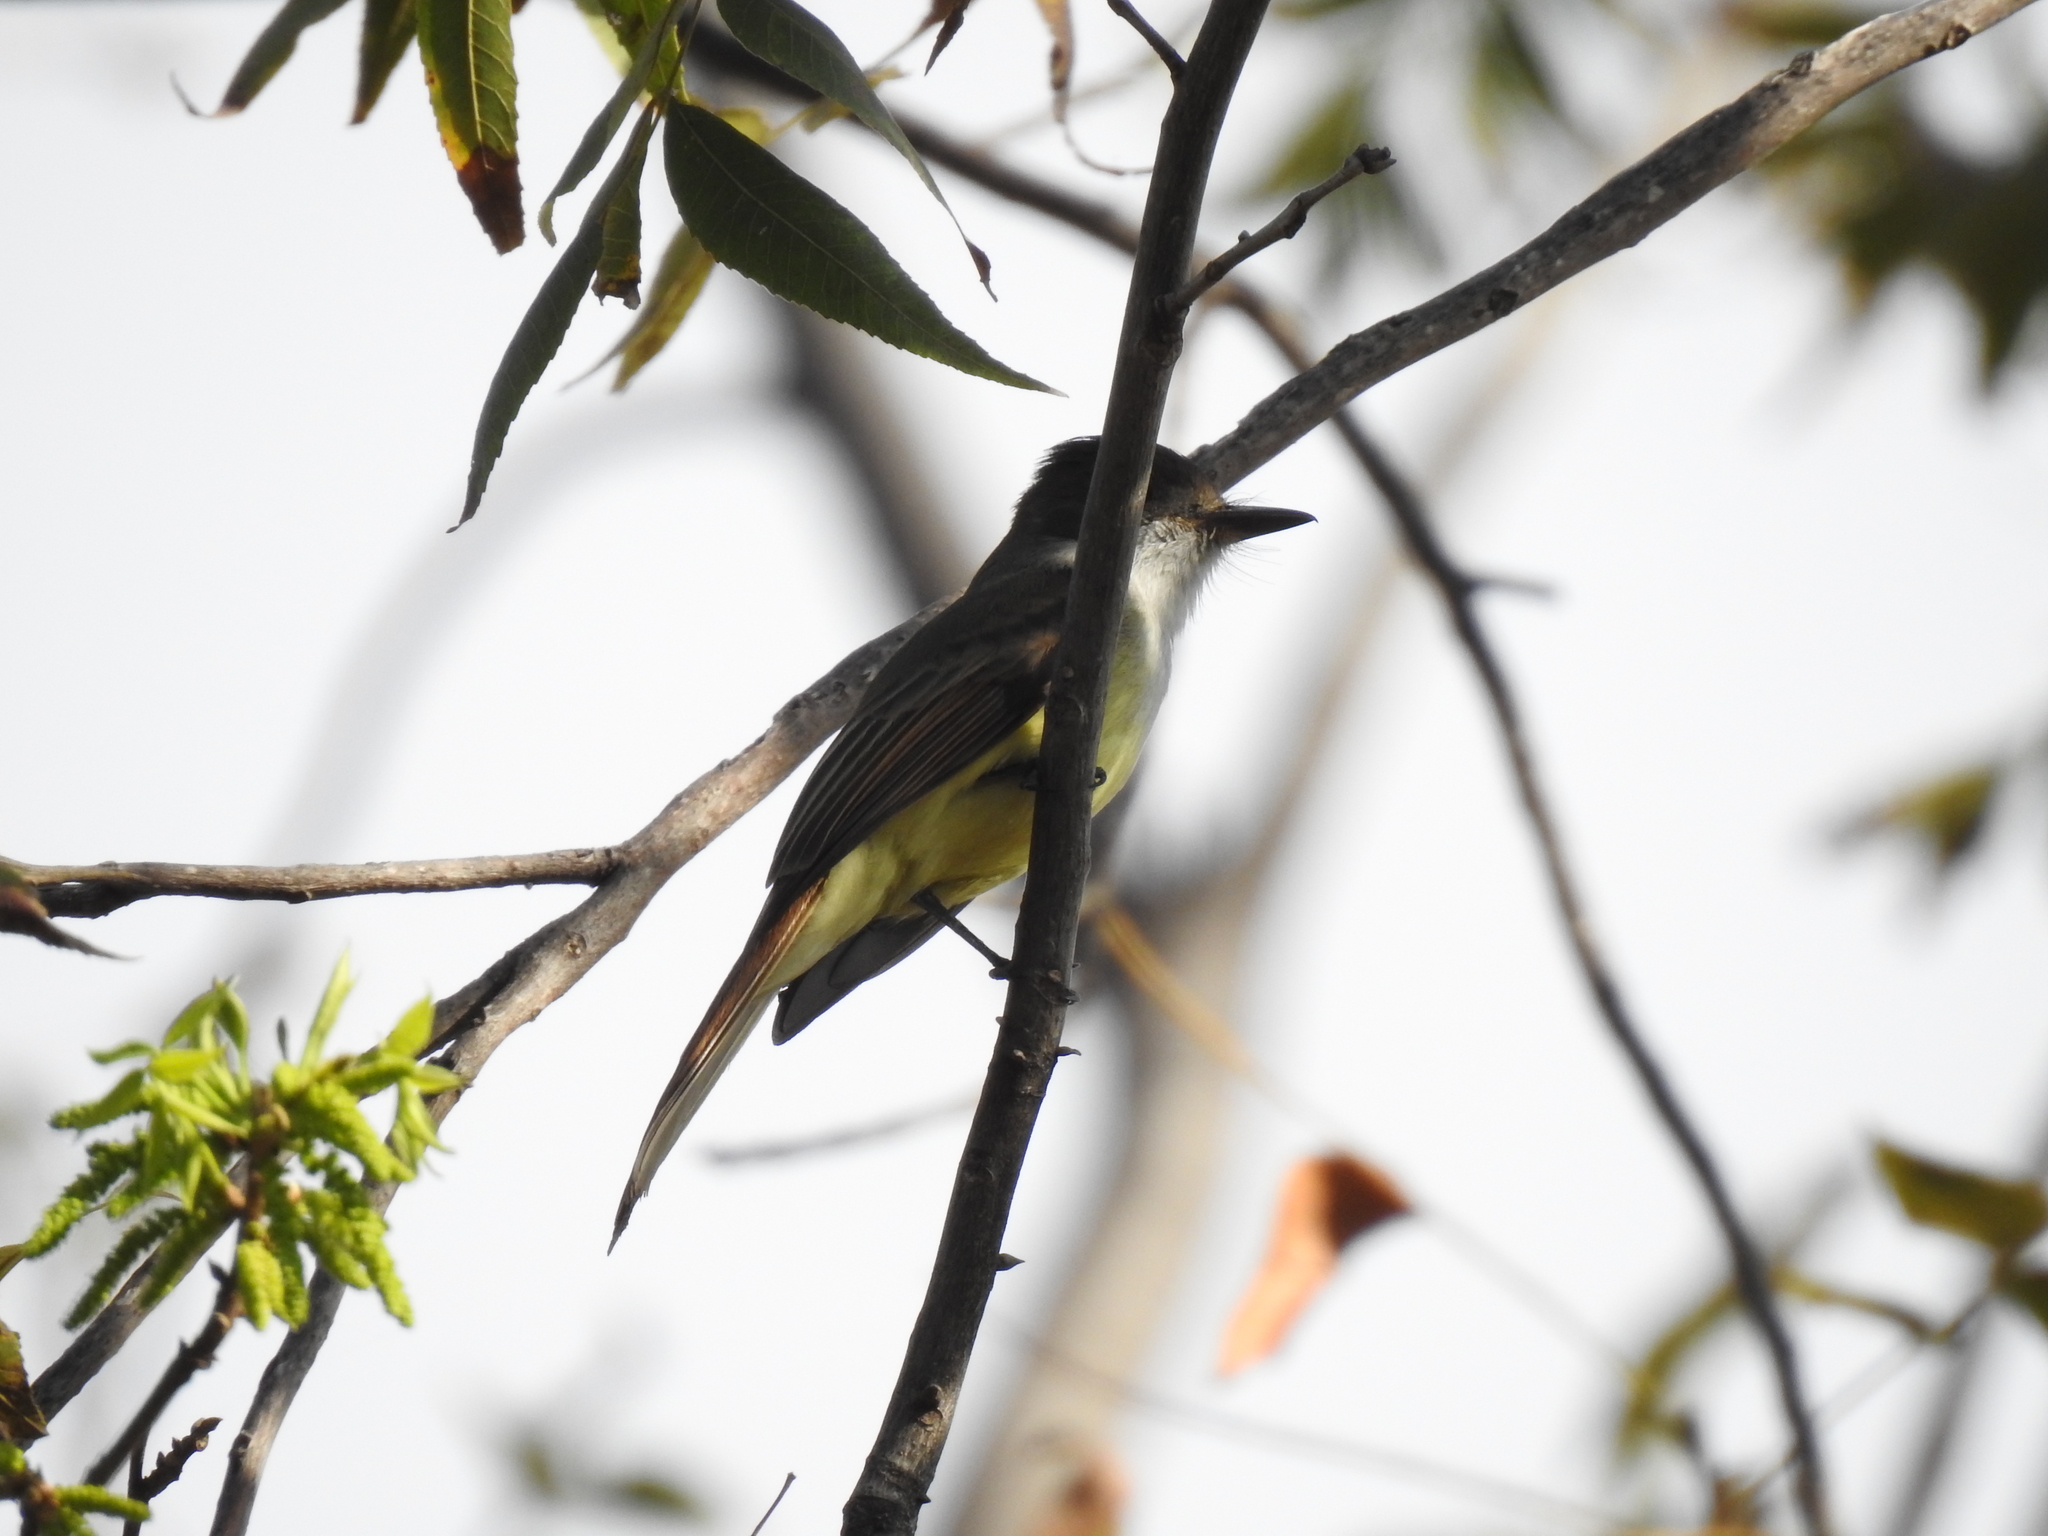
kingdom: Animalia
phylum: Chordata
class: Aves
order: Passeriformes
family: Tyrannidae
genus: Myiarchus
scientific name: Myiarchus tuberculifer
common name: Dusky-capped flycatcher
